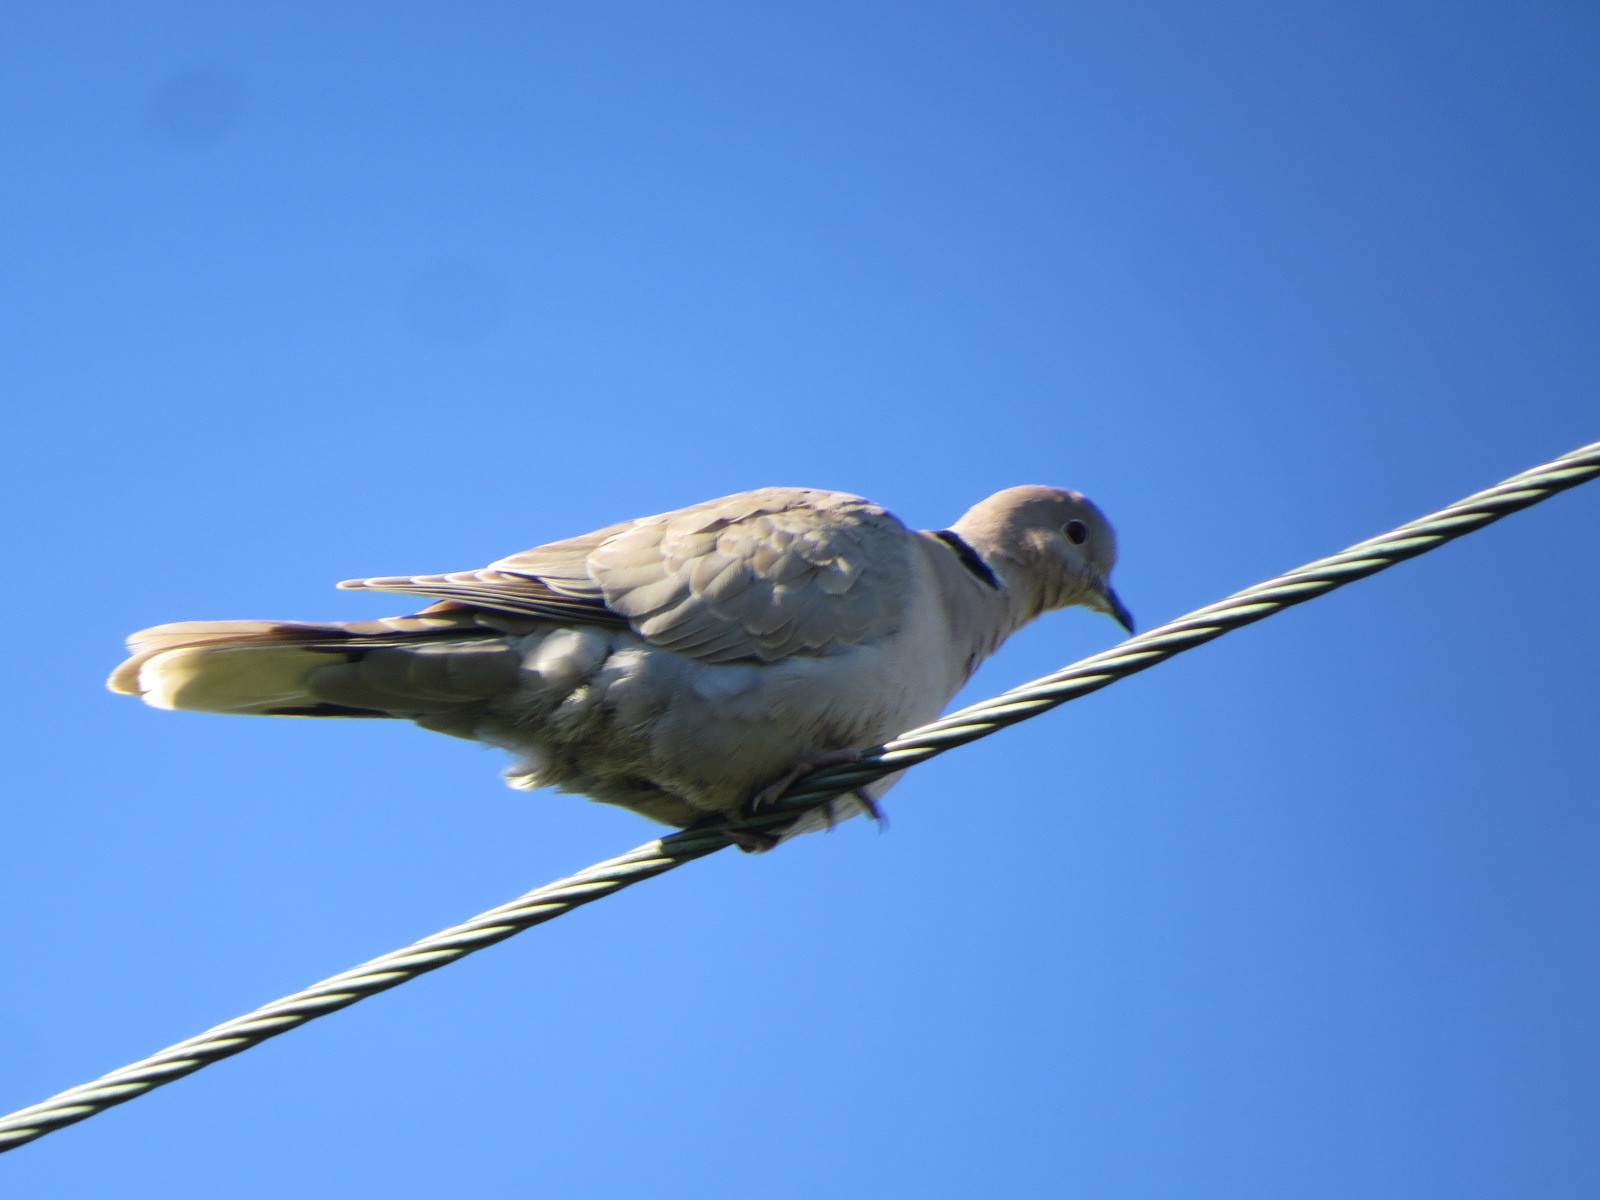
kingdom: Animalia
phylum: Chordata
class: Aves
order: Columbiformes
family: Columbidae
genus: Streptopelia
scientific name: Streptopelia decaocto
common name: Eurasian collared dove
